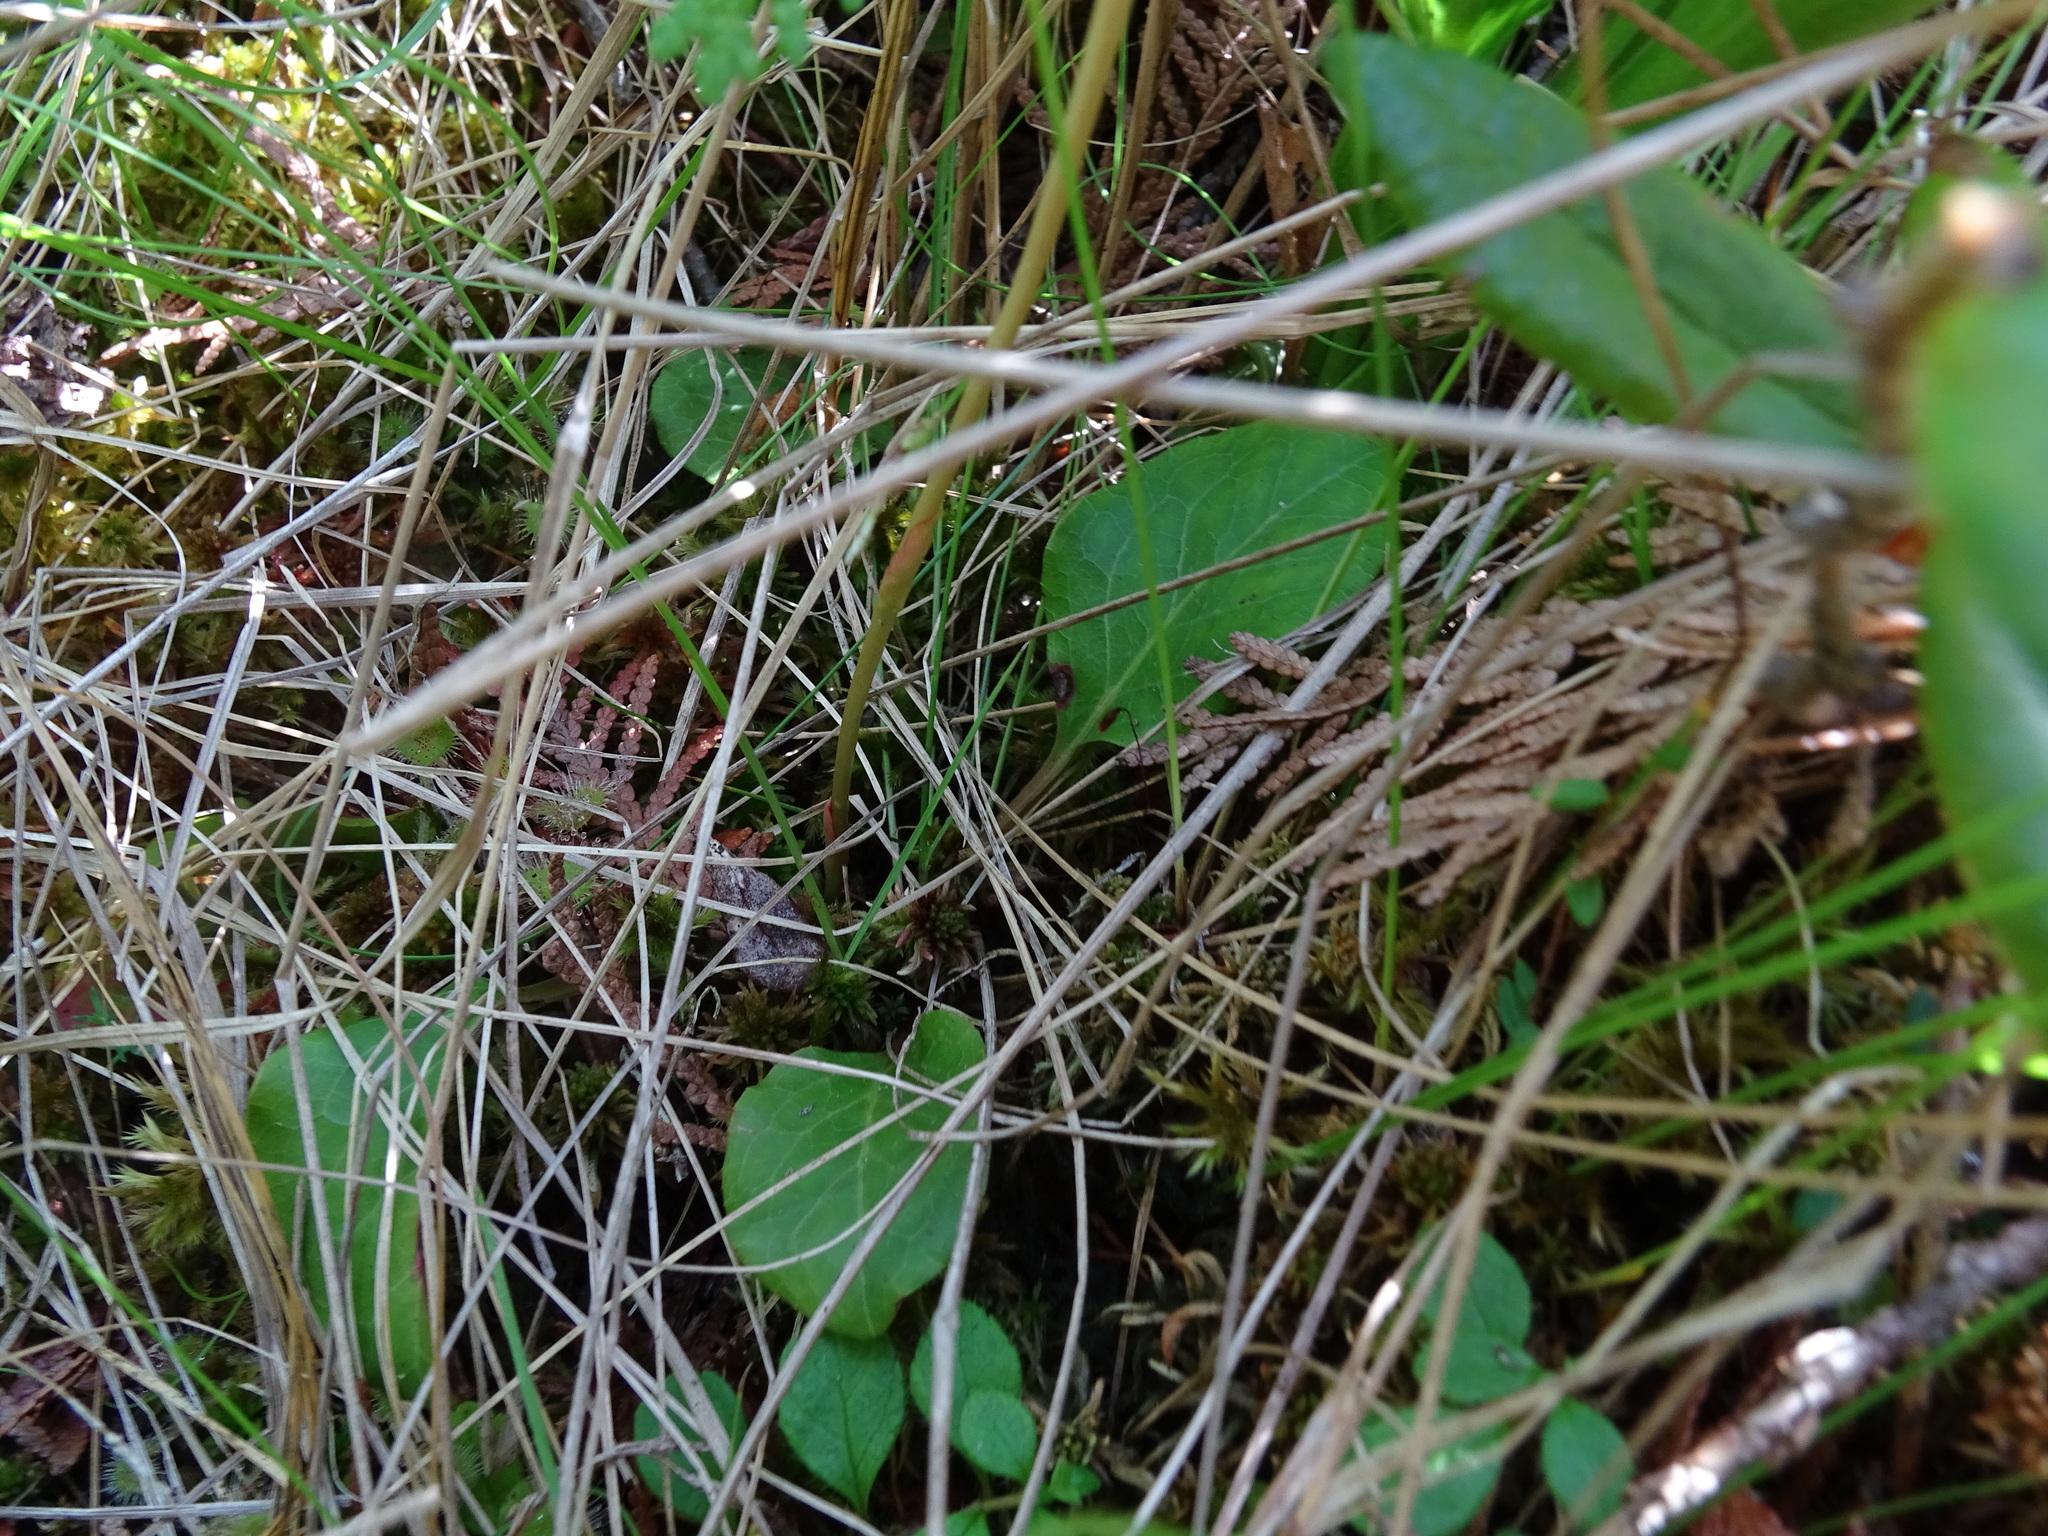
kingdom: Plantae
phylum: Tracheophyta
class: Magnoliopsida
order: Ericales
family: Ericaceae
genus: Pyrola
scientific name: Pyrola americana
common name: American wintergreen
